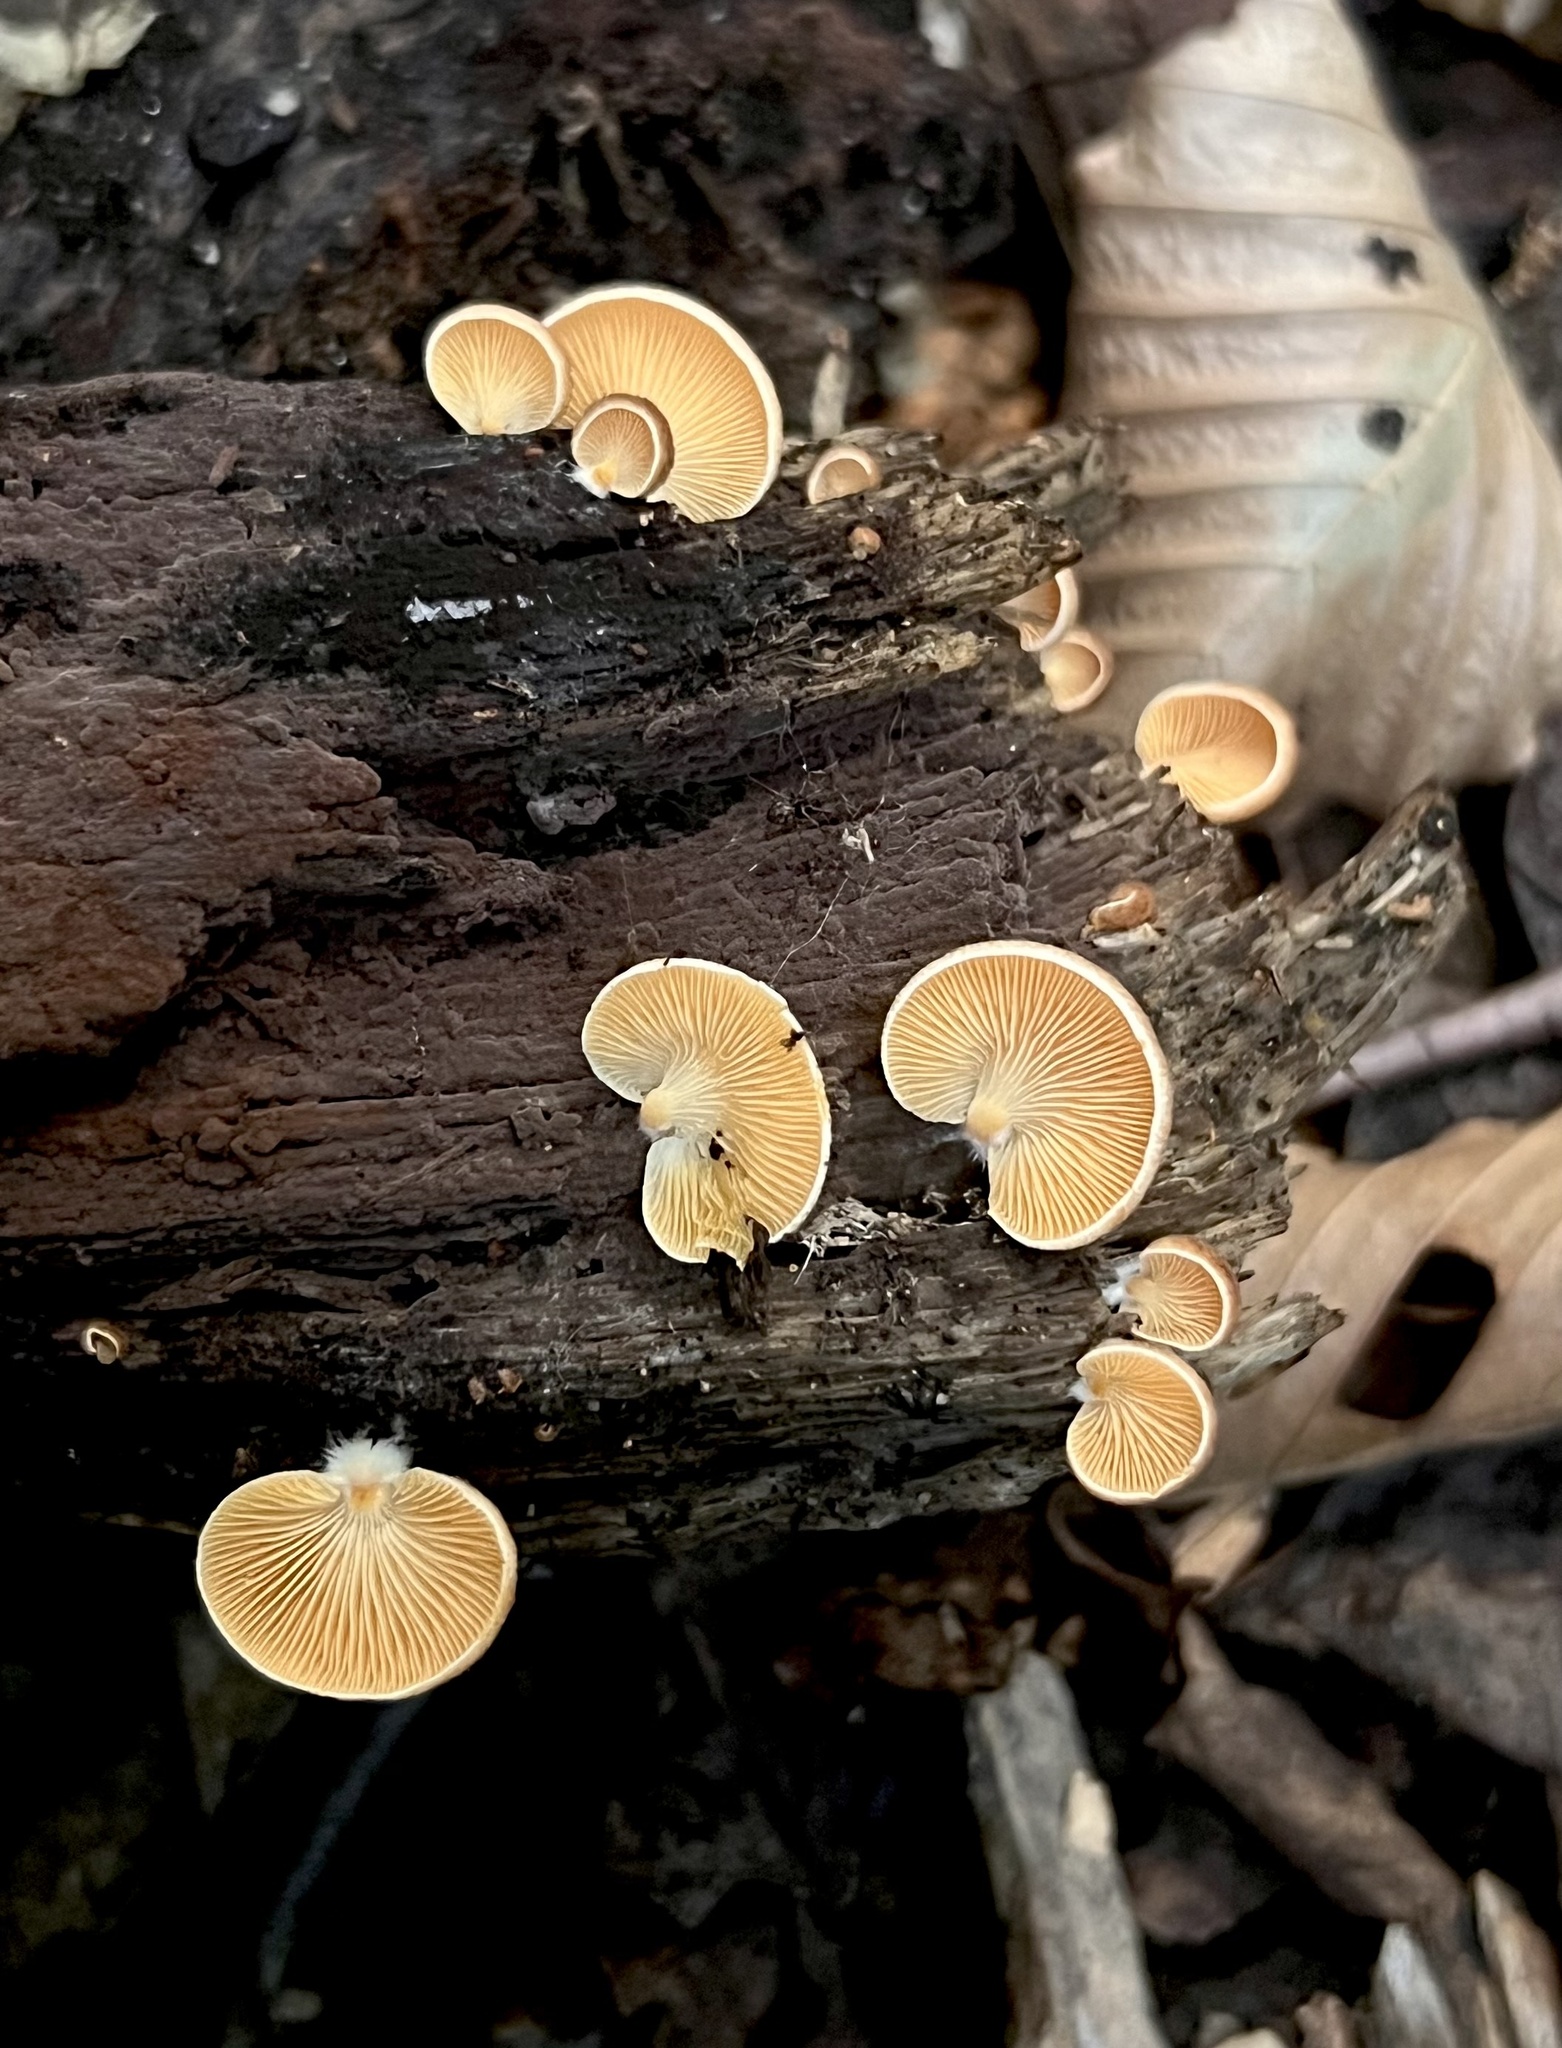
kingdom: Fungi
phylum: Basidiomycota
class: Agaricomycetes
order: Agaricales
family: Crepidotaceae
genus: Crepidotus
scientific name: Crepidotus crocophyllus
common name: Saffron oysterling
